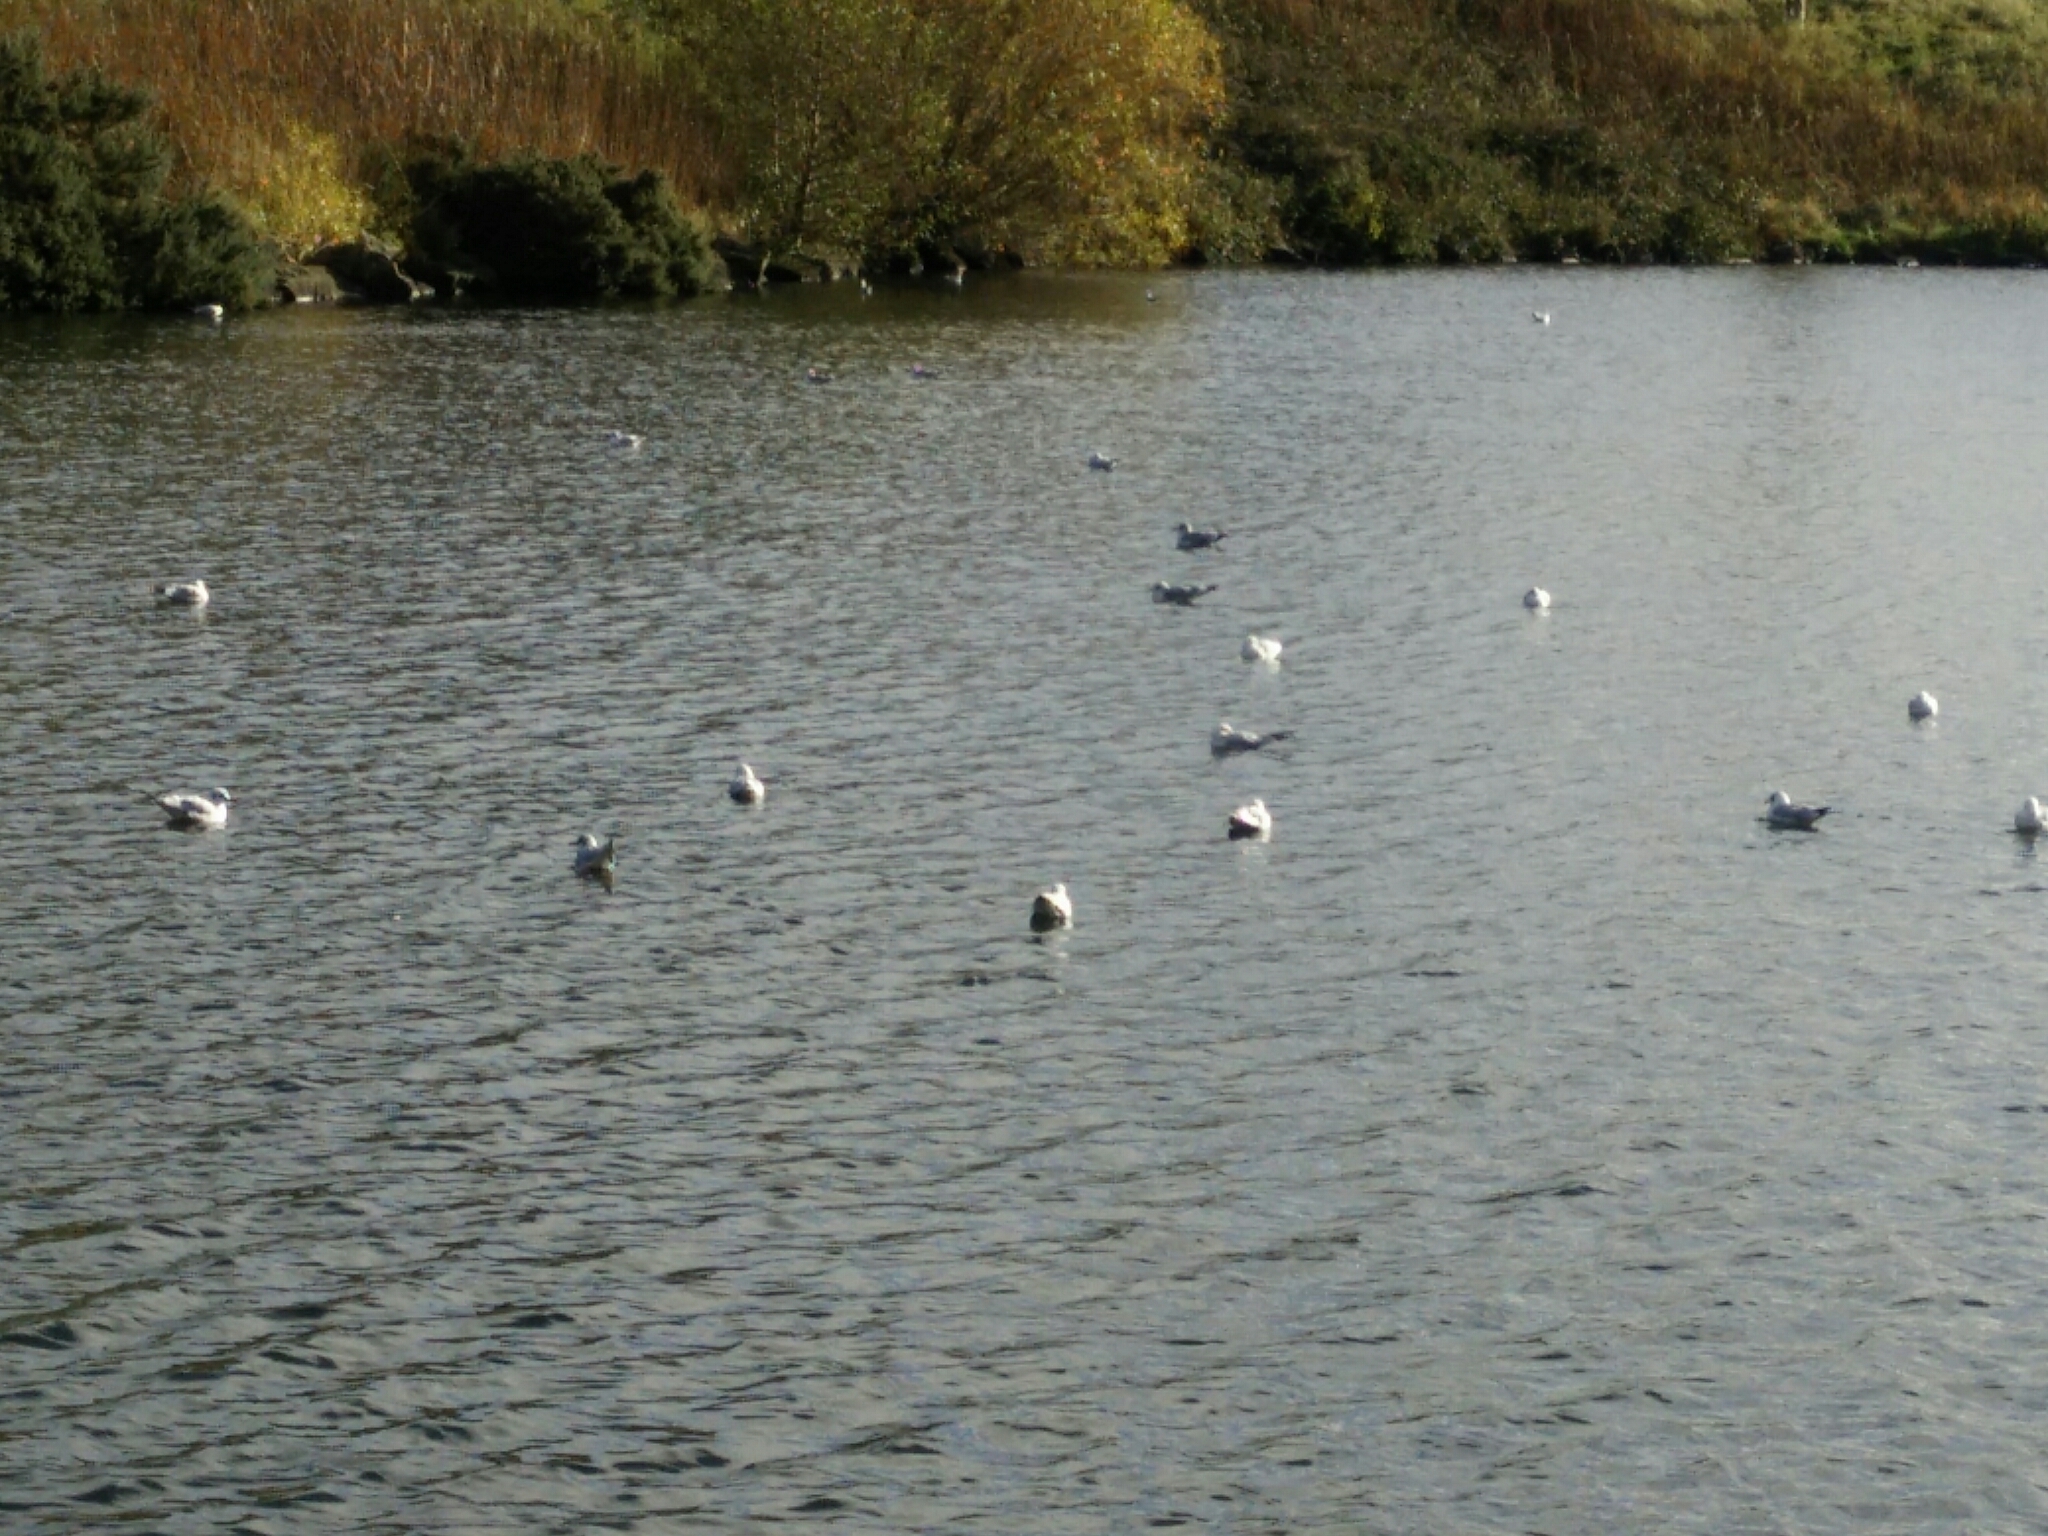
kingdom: Animalia
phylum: Chordata
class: Aves
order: Charadriiformes
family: Laridae
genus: Chroicocephalus
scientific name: Chroicocephalus ridibundus
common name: Black-headed gull
